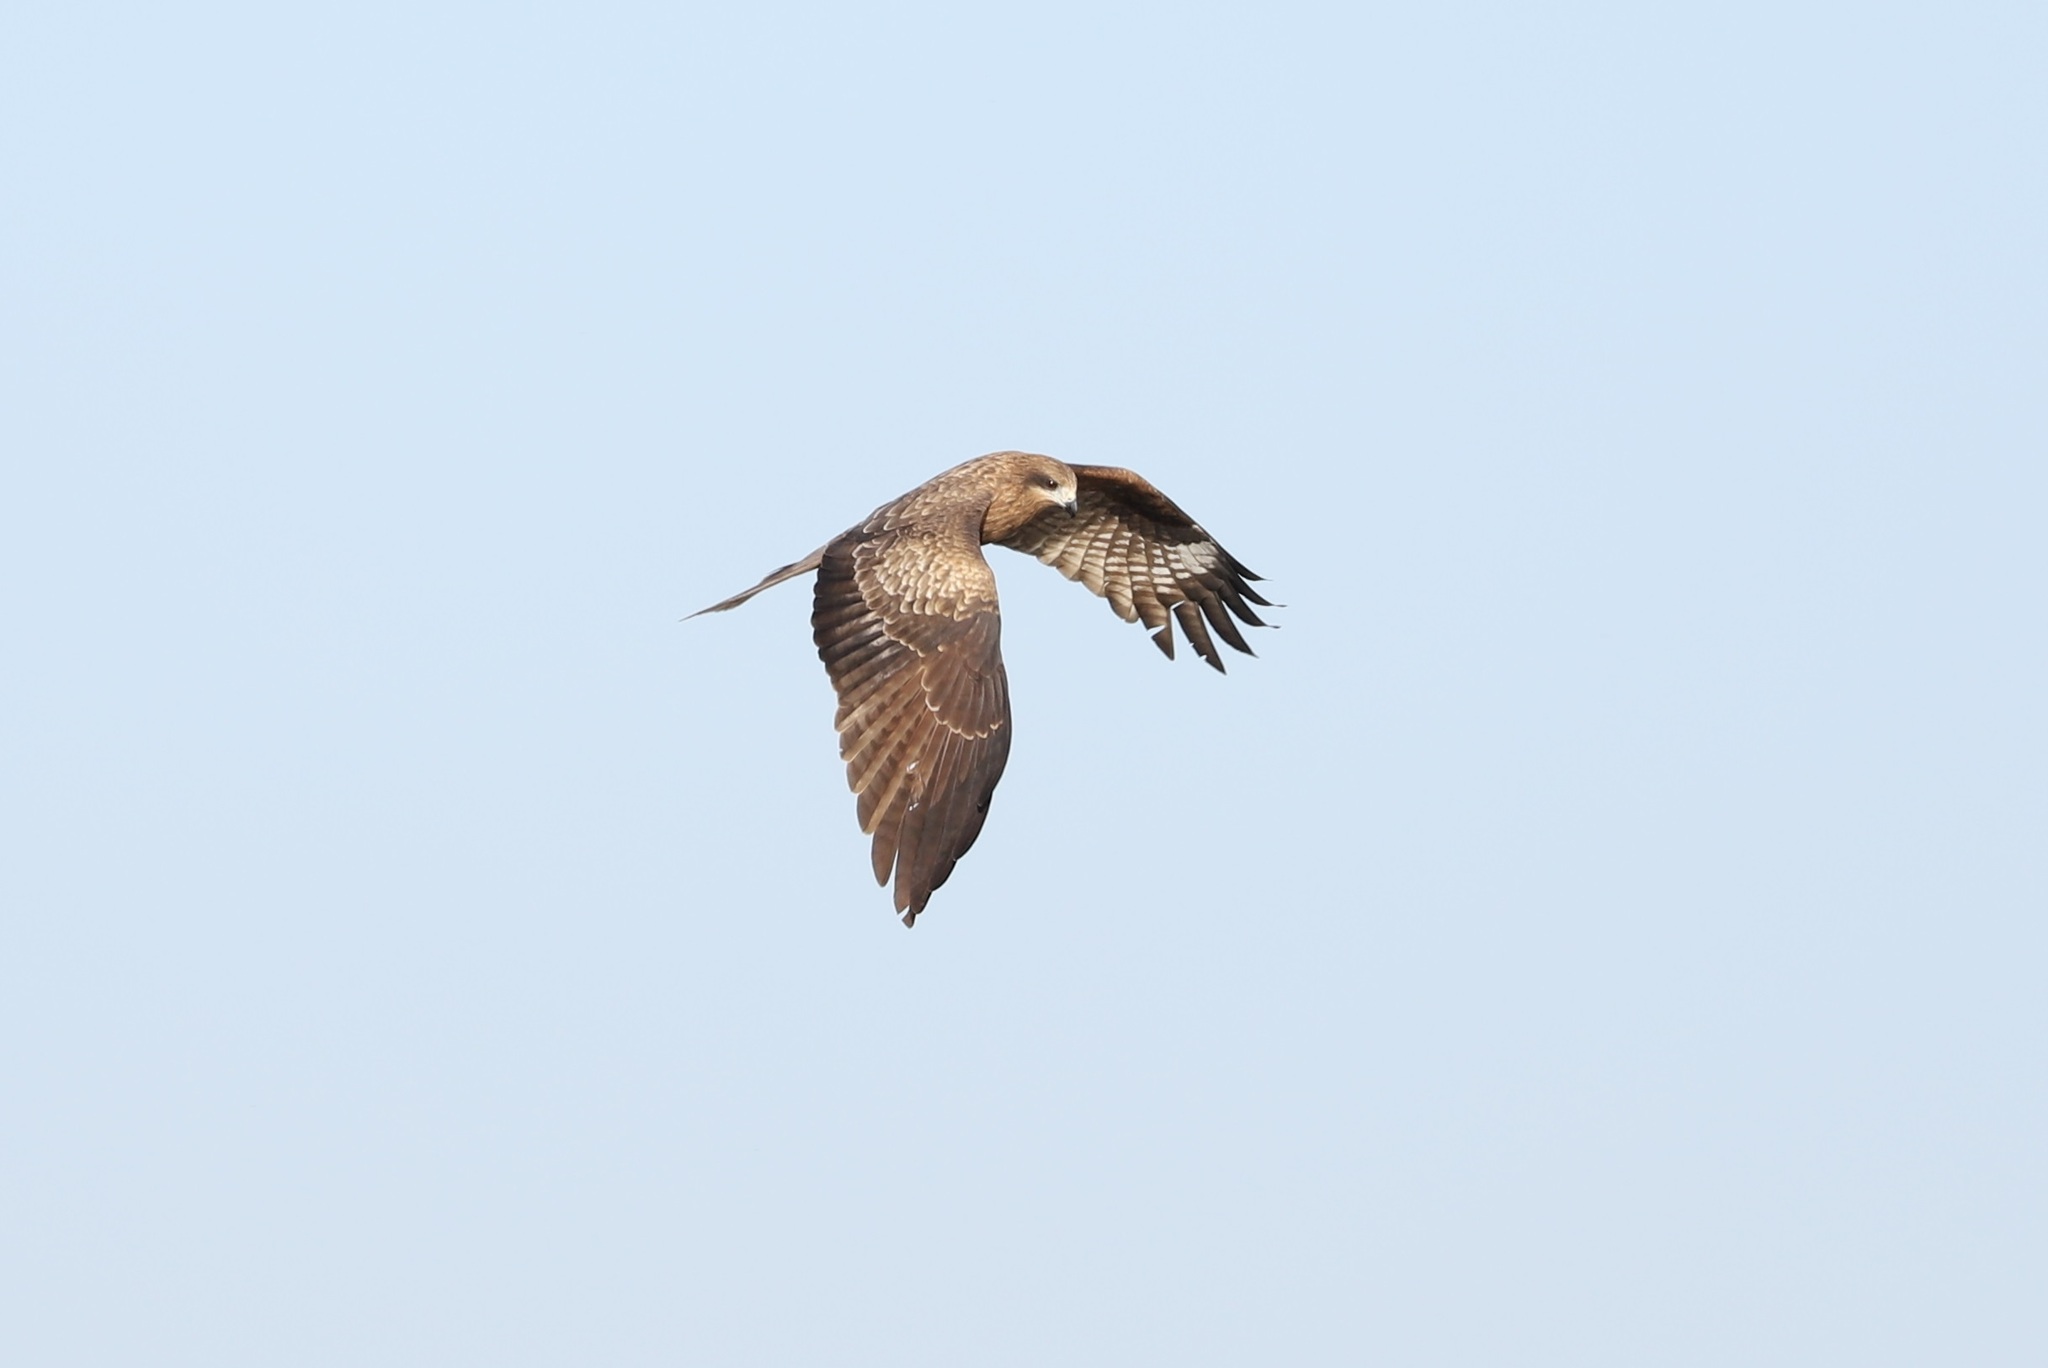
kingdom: Animalia
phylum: Chordata
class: Aves
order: Accipitriformes
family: Accipitridae
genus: Milvus
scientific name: Milvus migrans
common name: Black kite
